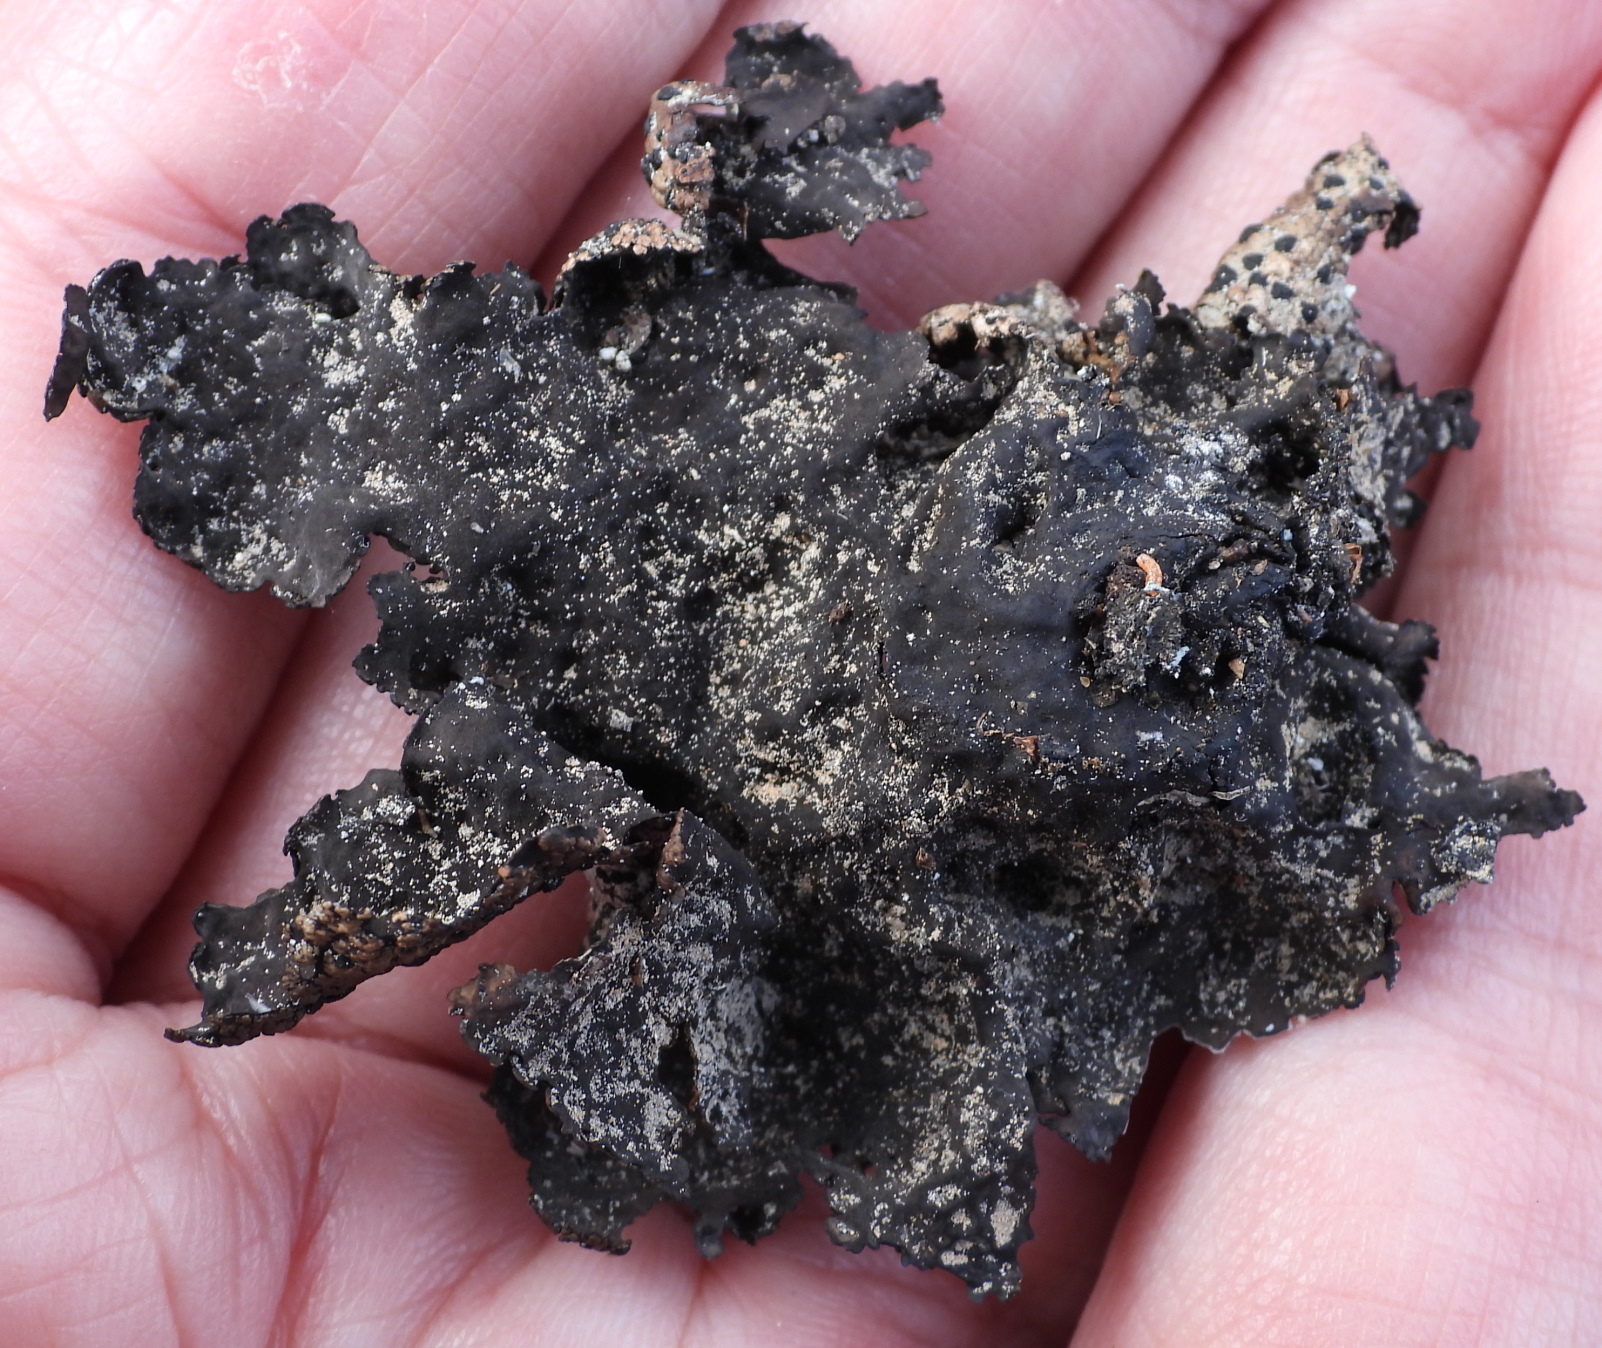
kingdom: Fungi
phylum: Ascomycota
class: Lecanoromycetes
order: Umbilicariales
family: Umbilicariaceae
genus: Umbilicaria
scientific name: Umbilicaria hyperborea
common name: Blistered rock tripe
